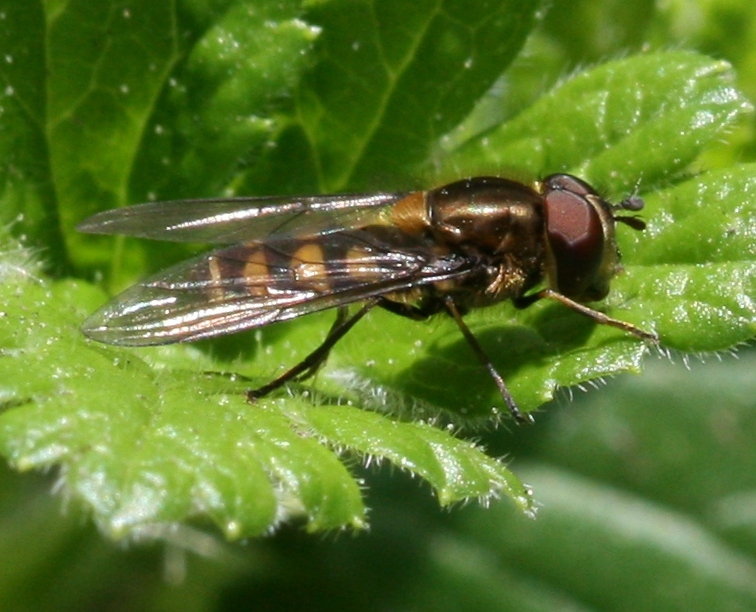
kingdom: Animalia
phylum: Arthropoda
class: Insecta
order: Diptera
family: Syrphidae
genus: Parasyrphus
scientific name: Parasyrphus punctulatus
